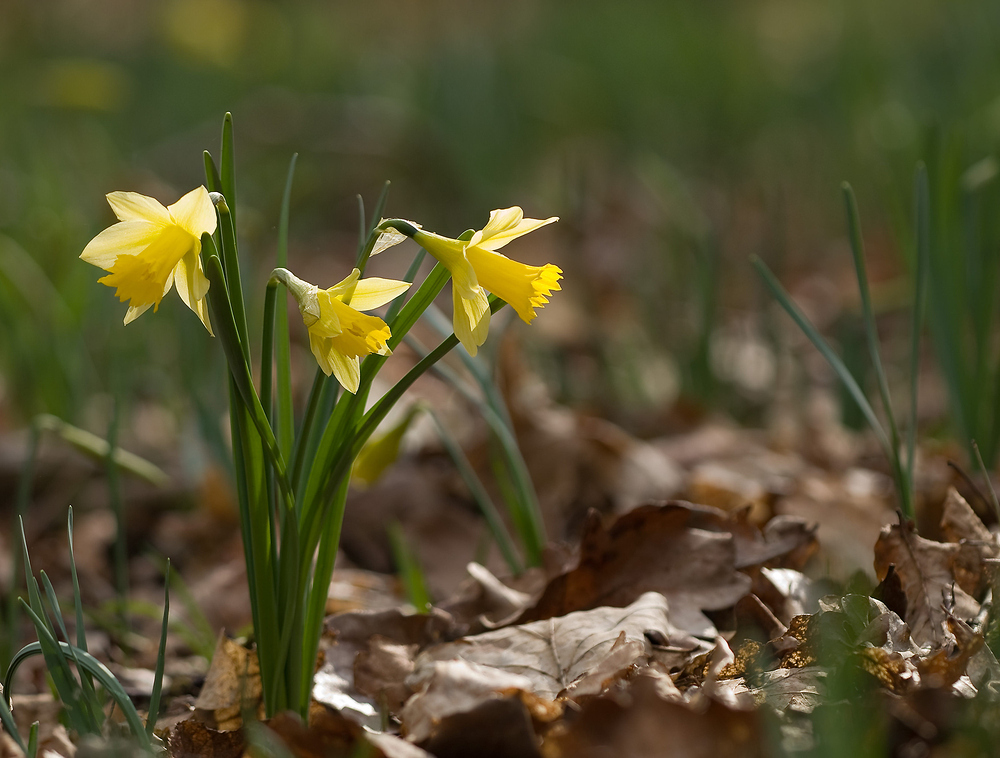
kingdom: Plantae
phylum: Tracheophyta
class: Liliopsida
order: Asparagales
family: Amaryllidaceae
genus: Narcissus
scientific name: Narcissus pseudonarcissus
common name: Daffodil
